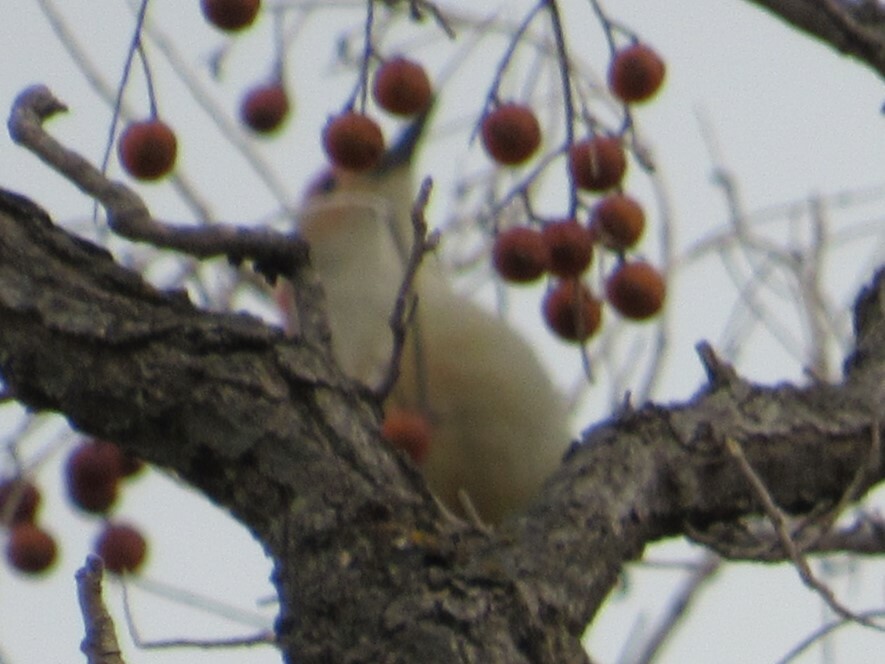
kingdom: Animalia
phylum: Chordata
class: Aves
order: Piciformes
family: Picidae
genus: Melanerpes
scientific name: Melanerpes carolinus
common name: Red-bellied woodpecker
